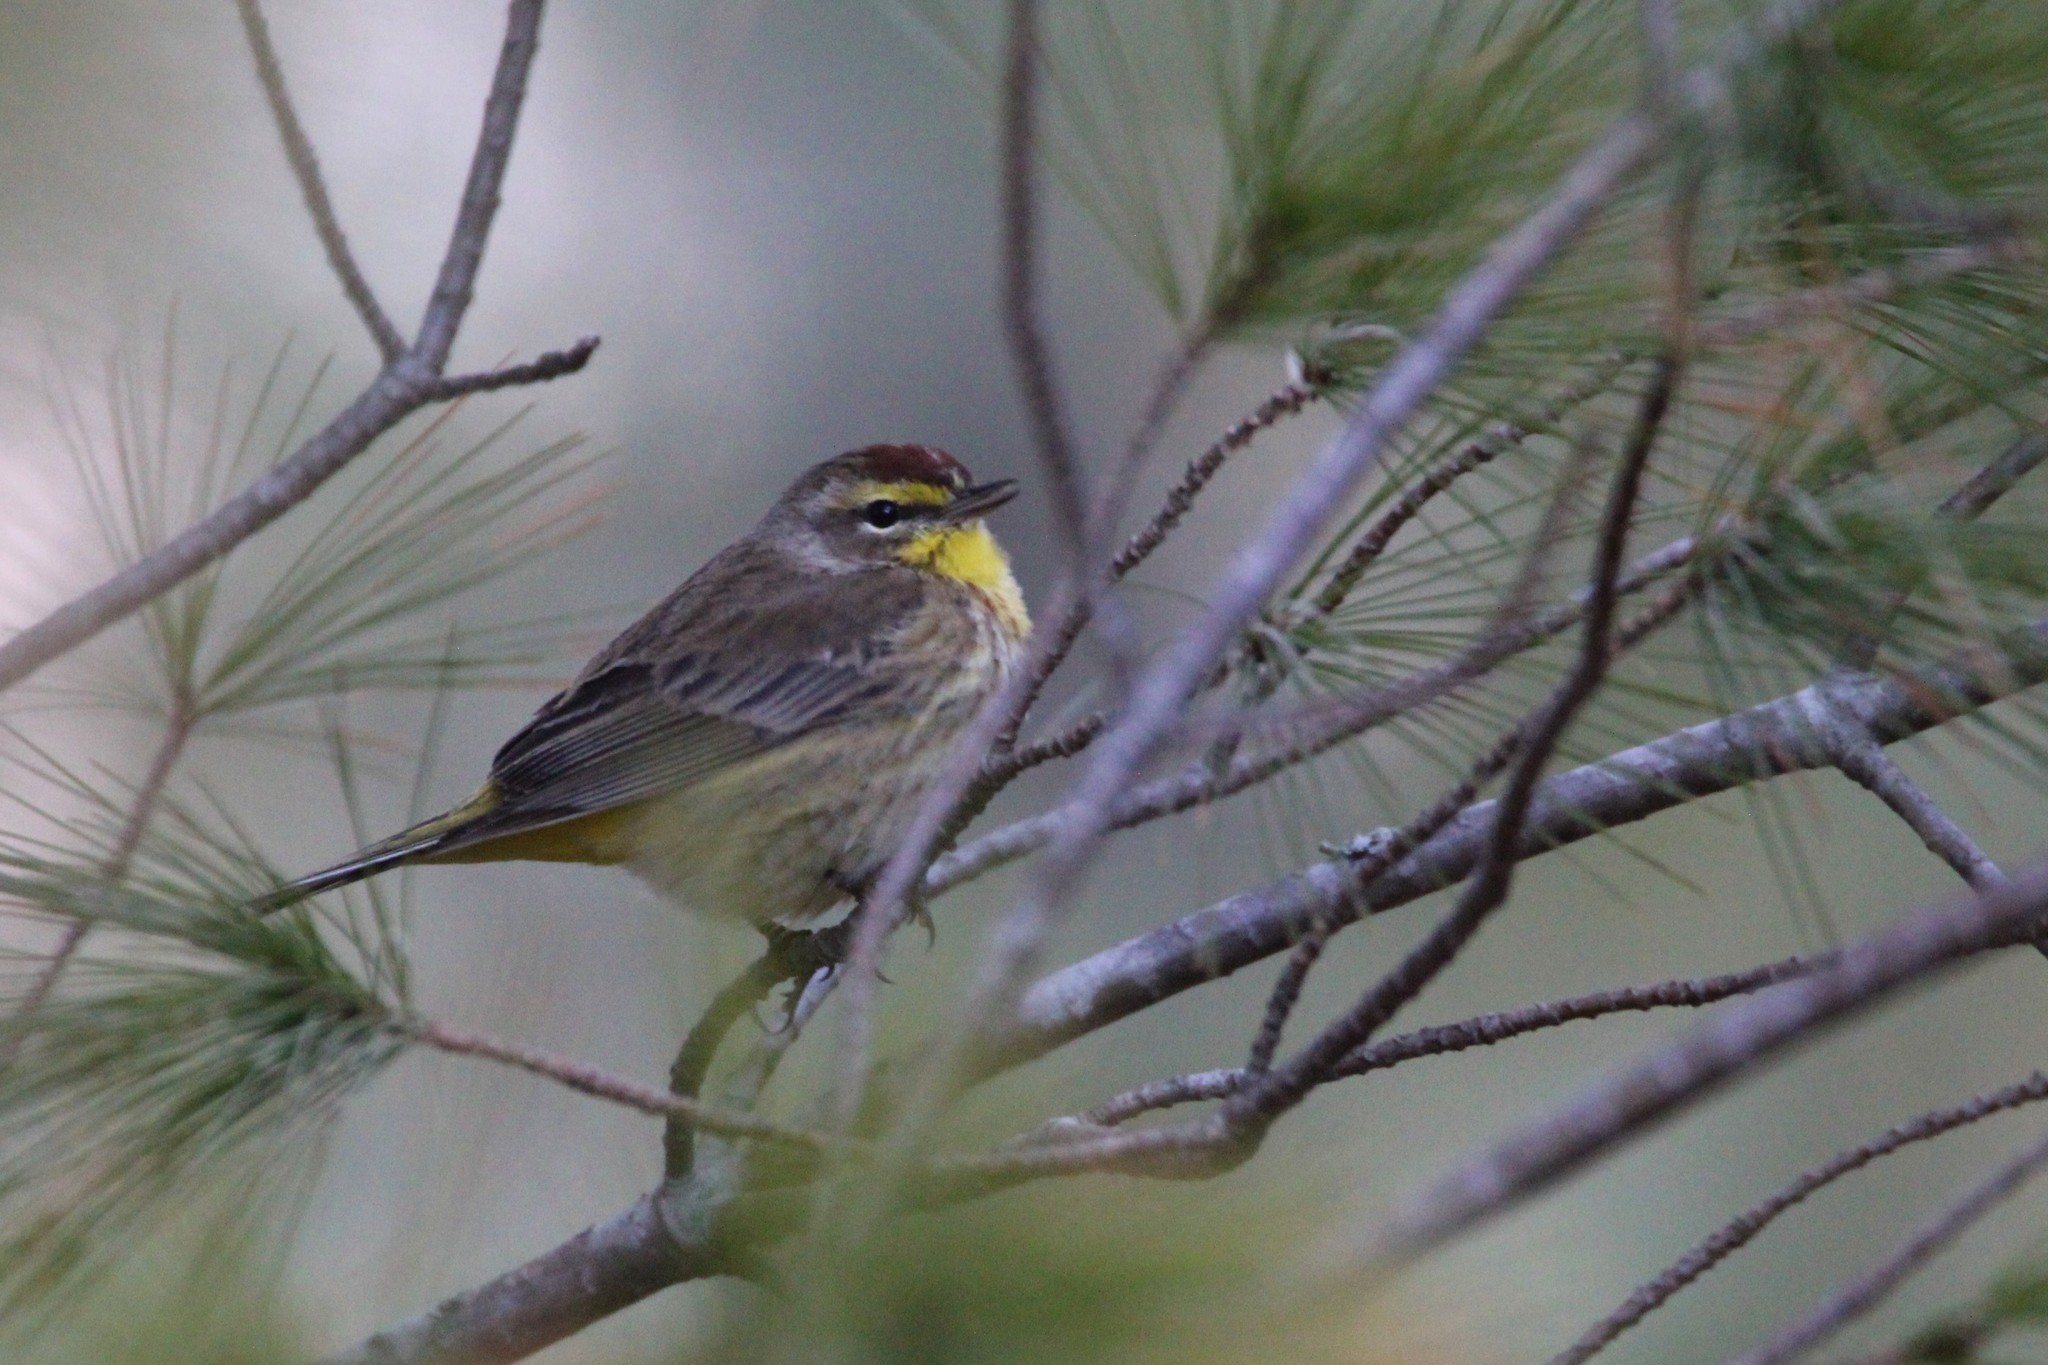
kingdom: Animalia
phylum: Chordata
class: Aves
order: Passeriformes
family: Parulidae
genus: Setophaga
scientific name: Setophaga palmarum
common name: Palm warbler
